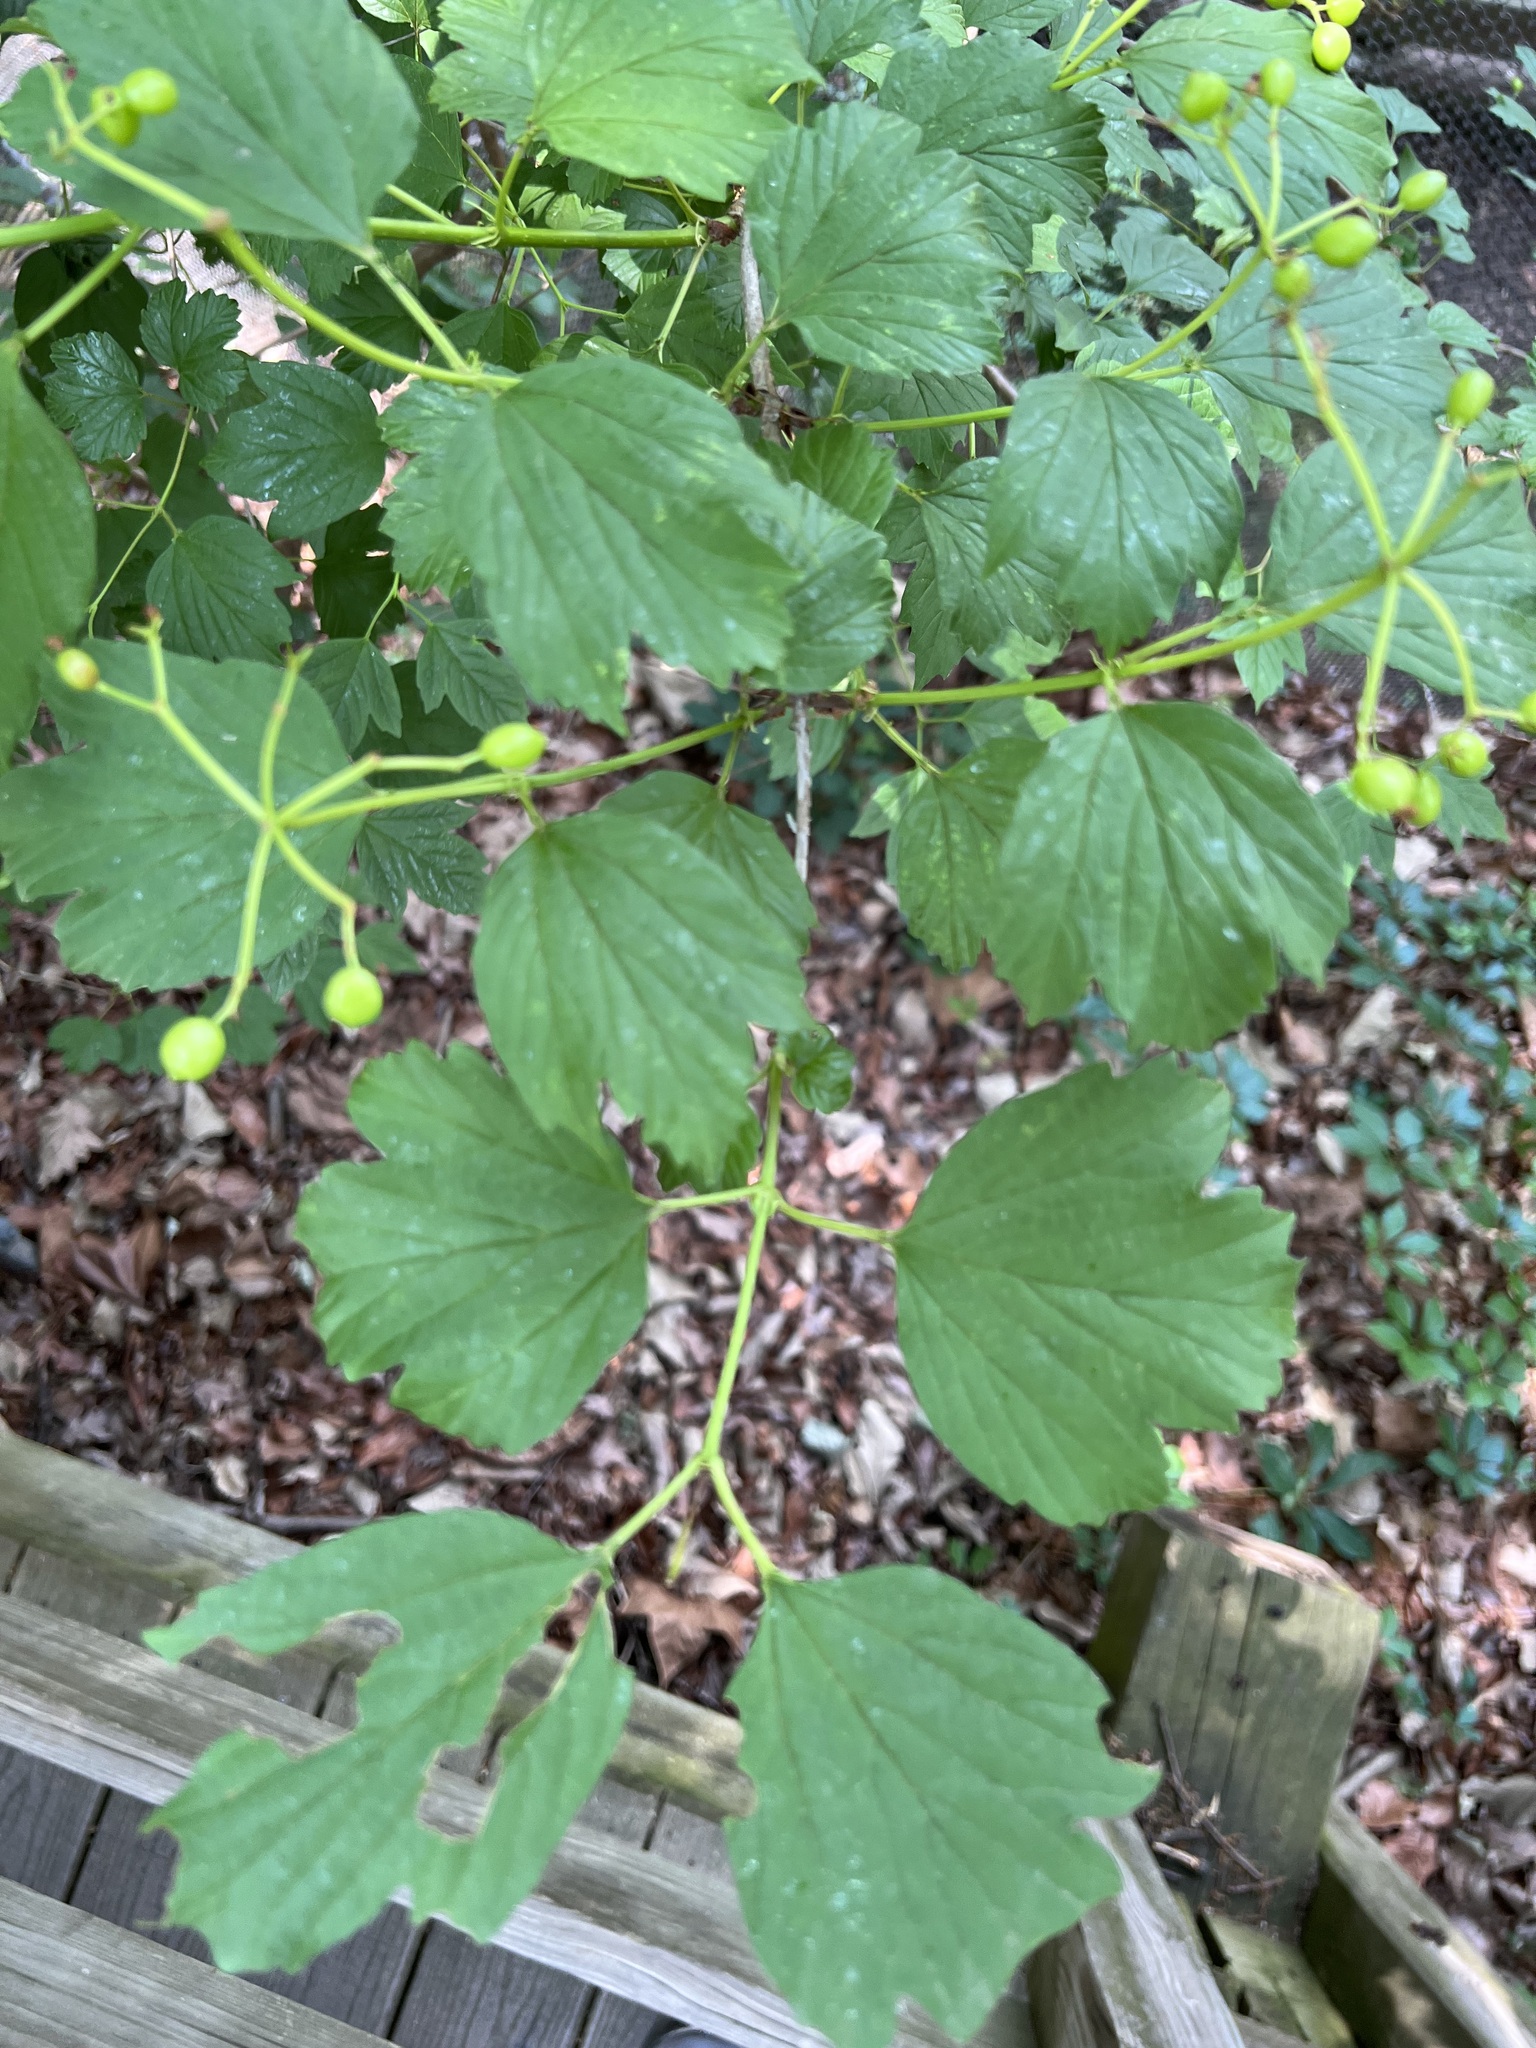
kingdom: Plantae
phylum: Tracheophyta
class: Magnoliopsida
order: Dipsacales
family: Viburnaceae
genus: Viburnum
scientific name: Viburnum opulus
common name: Guelder-rose
